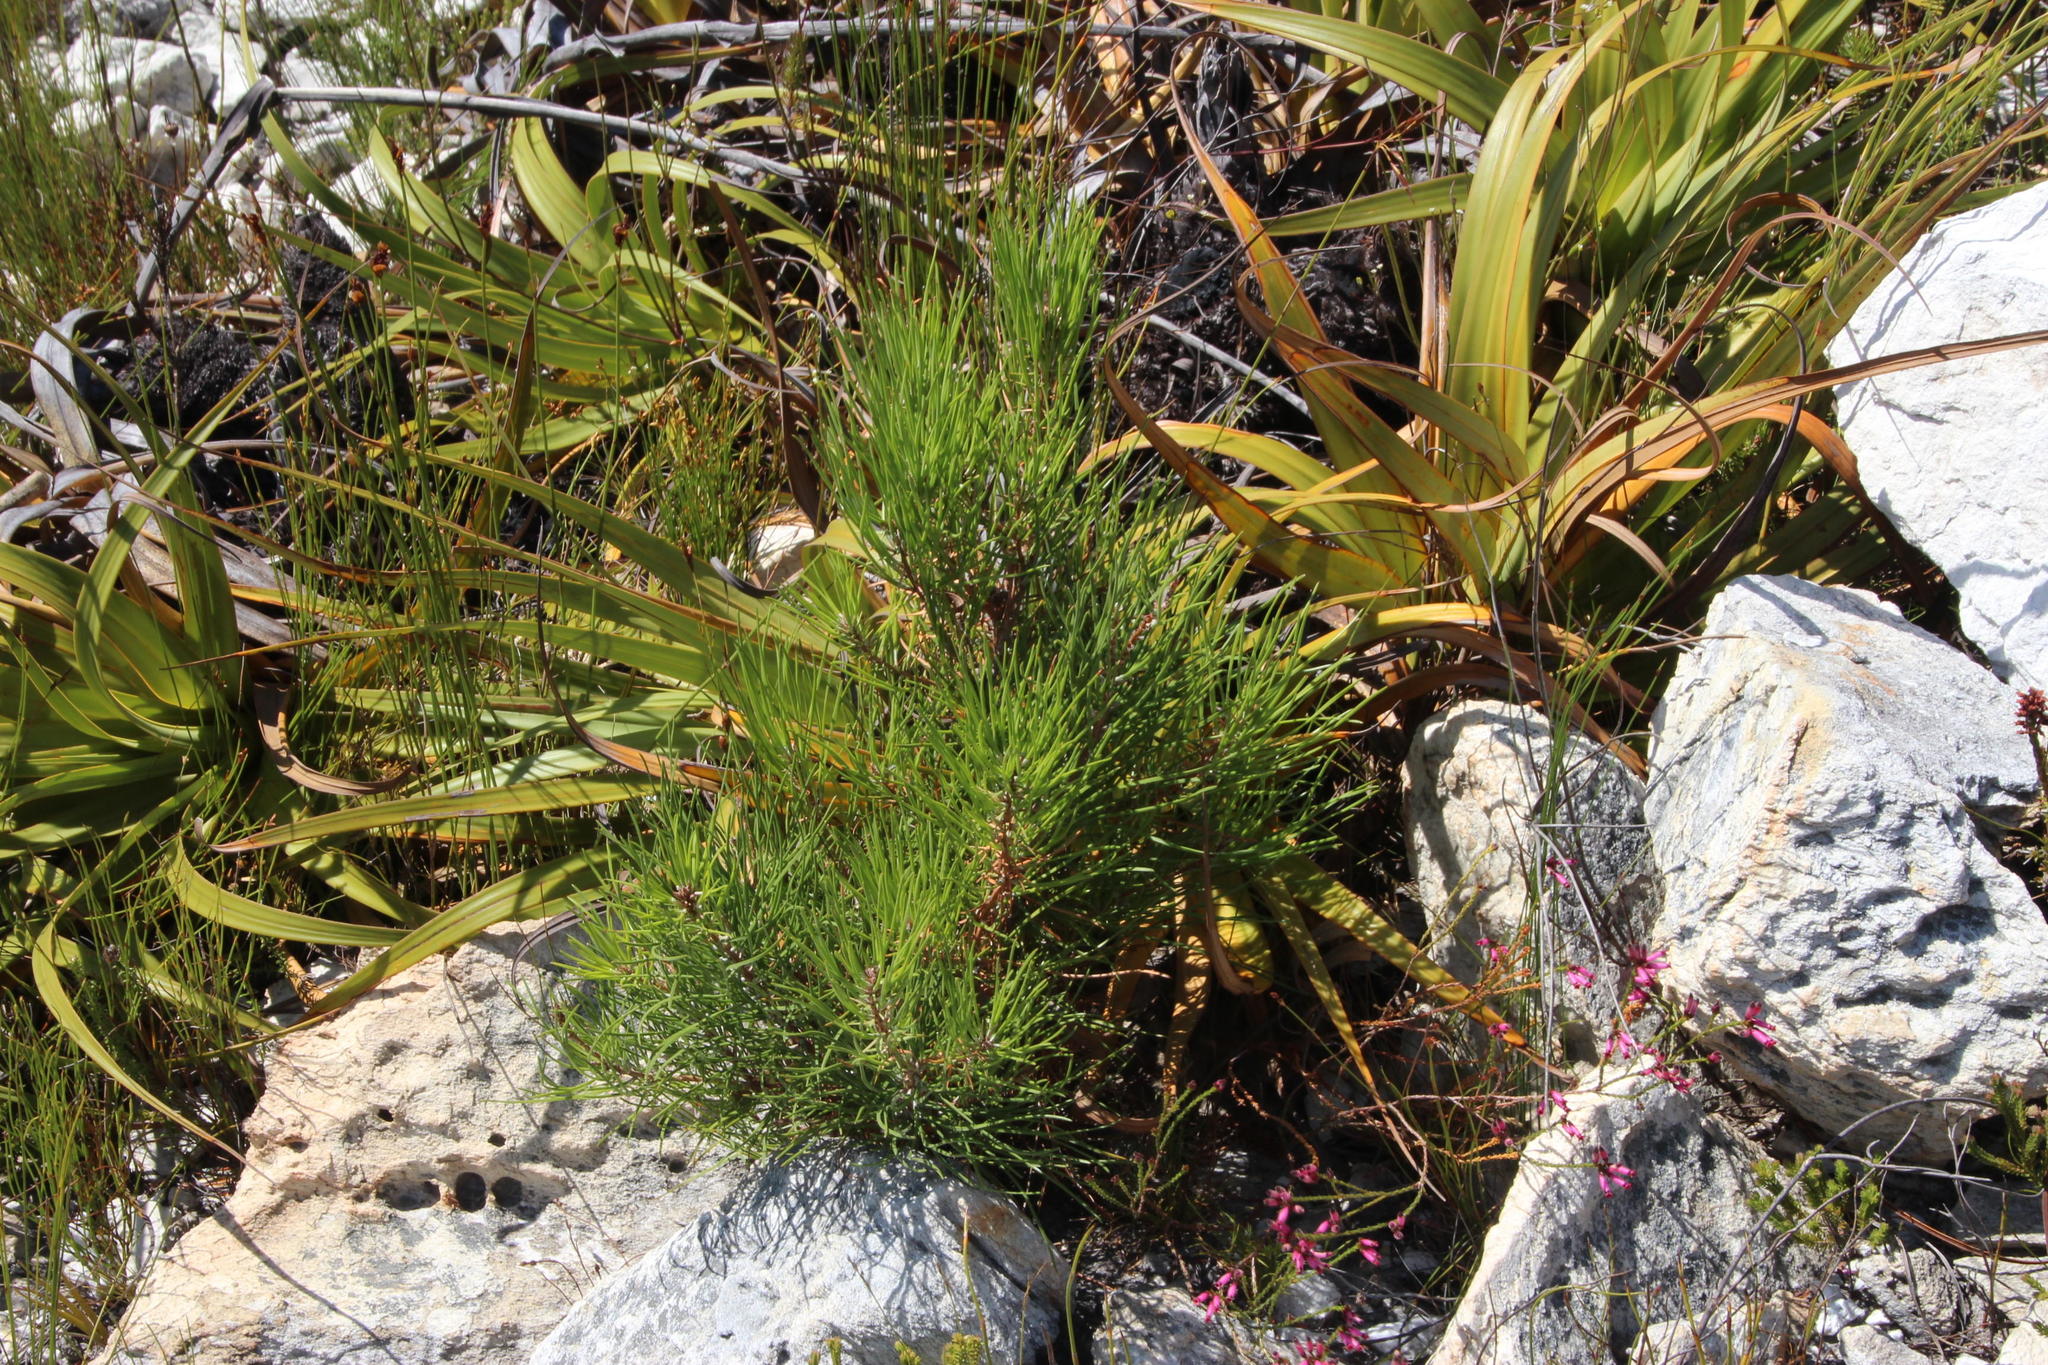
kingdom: Plantae
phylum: Tracheophyta
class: Pinopsida
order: Pinales
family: Pinaceae
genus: Pinus
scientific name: Pinus radiata
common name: Monterey pine
